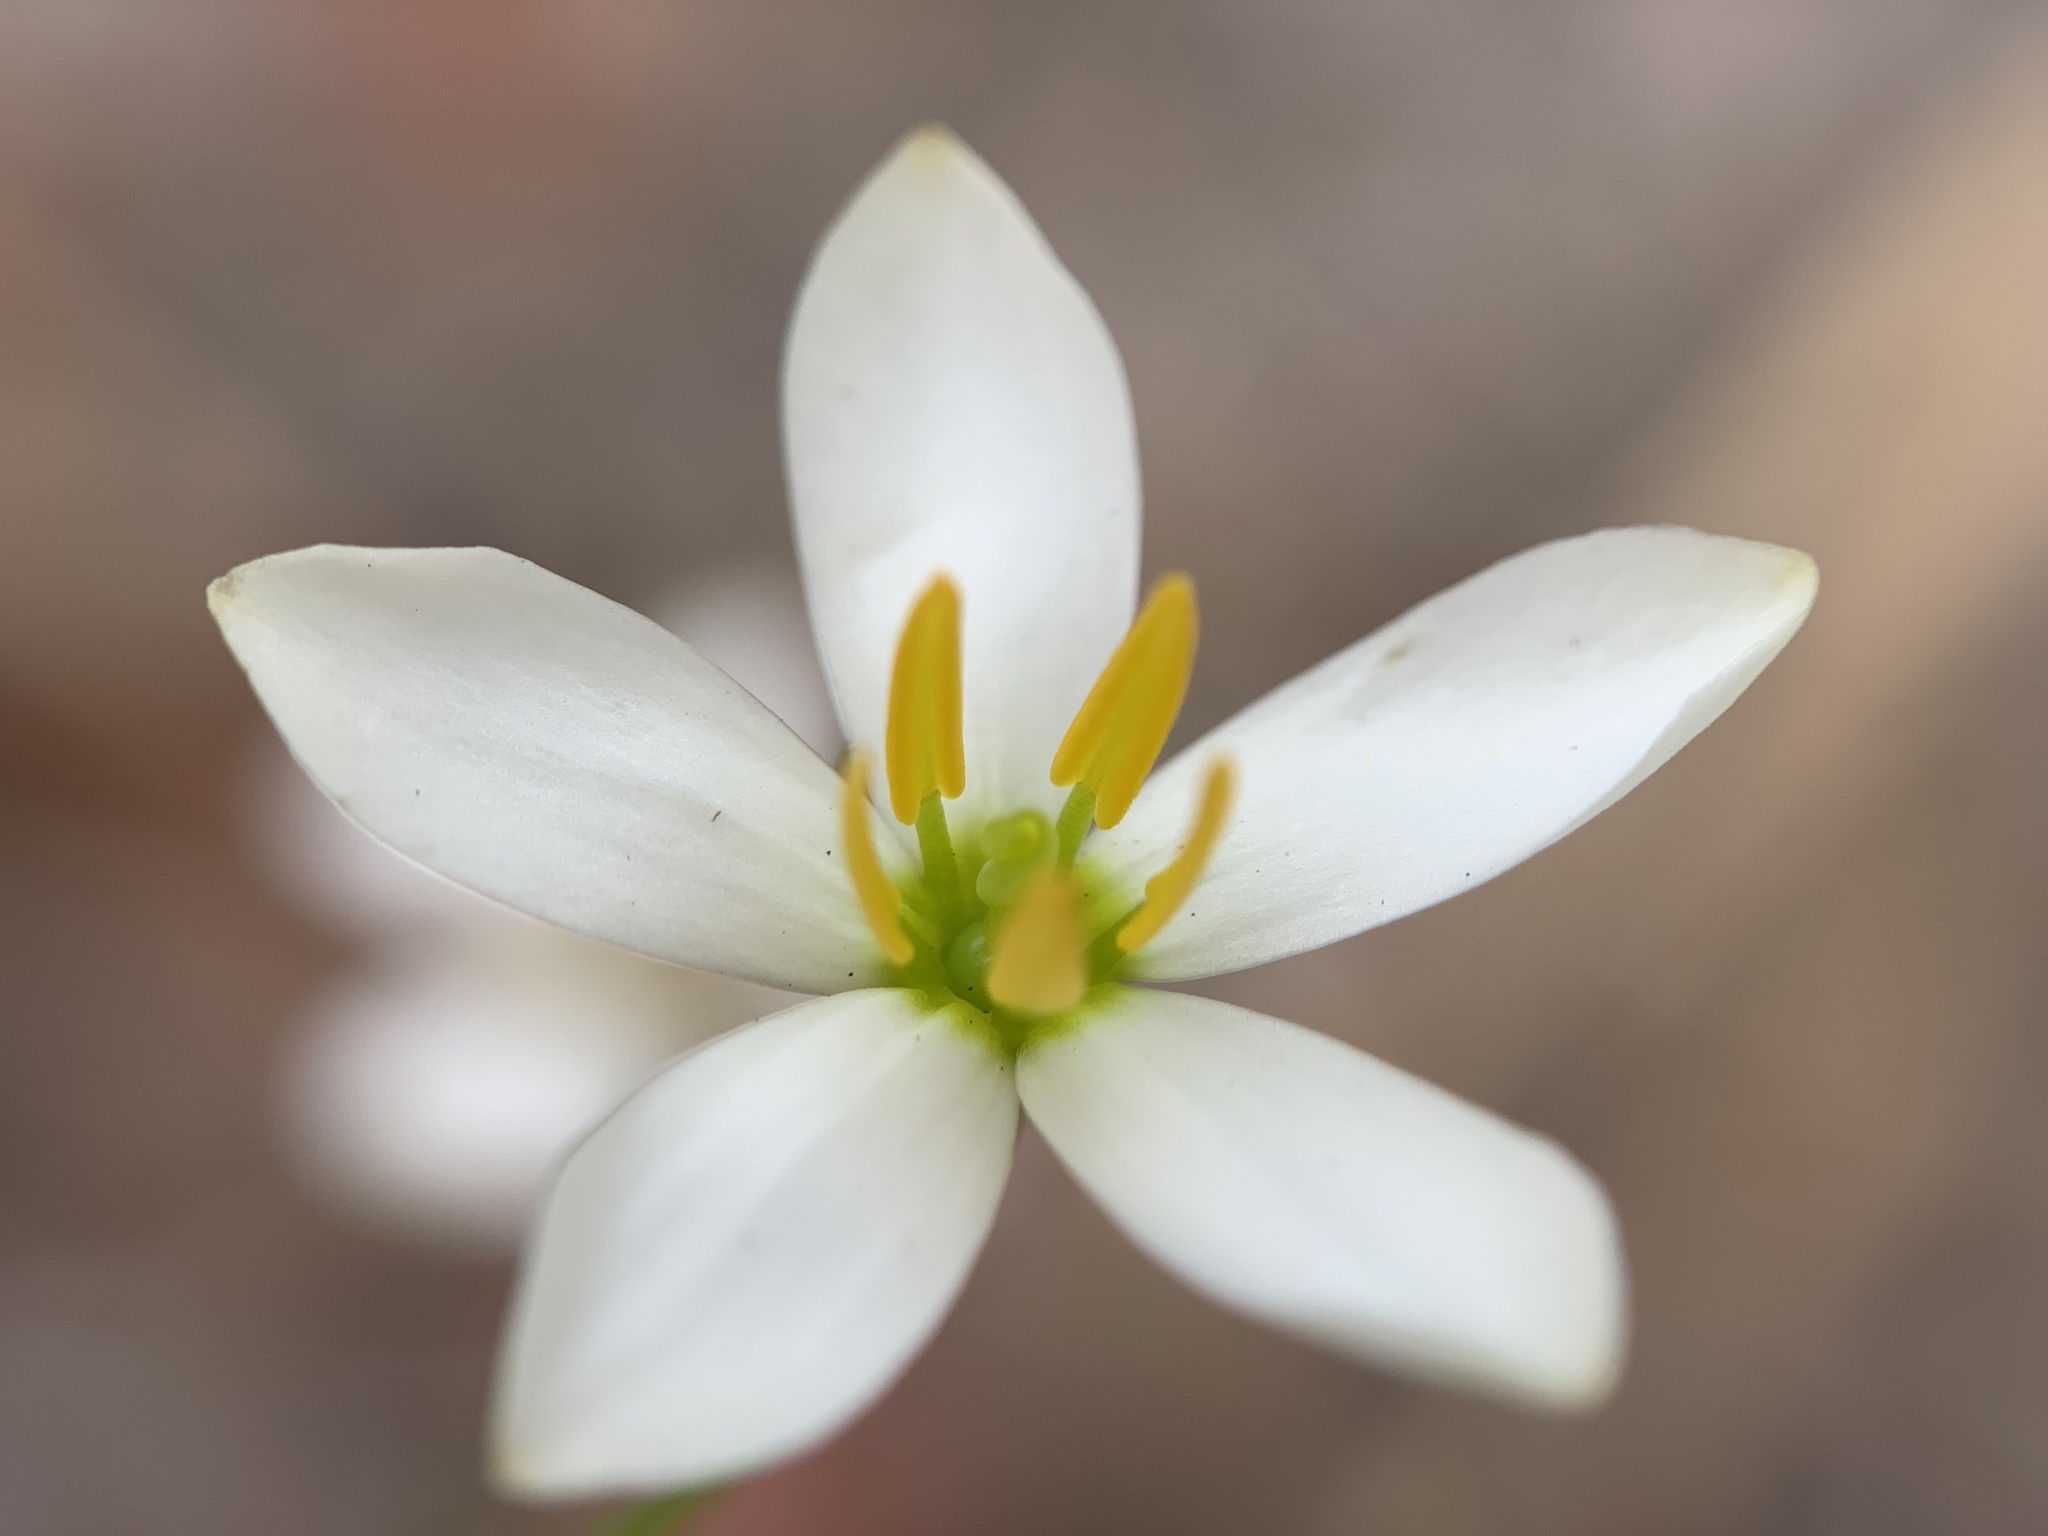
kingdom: Plantae
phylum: Tracheophyta
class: Magnoliopsida
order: Gentianales
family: Gentianaceae
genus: Sabatia
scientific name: Sabatia brevifolia
